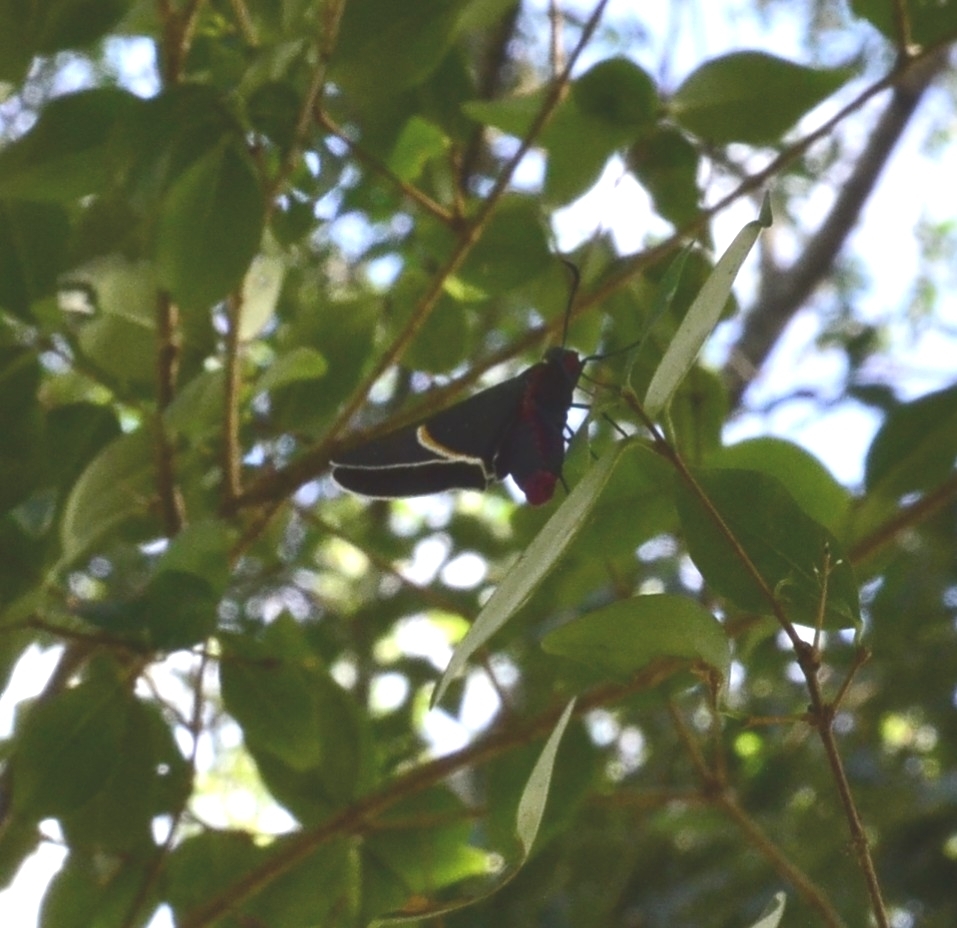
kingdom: Animalia
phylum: Arthropoda
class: Insecta
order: Lepidoptera
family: Hesperiidae
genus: Mysoria
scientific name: Mysoria barcastus
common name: Royal firetip
